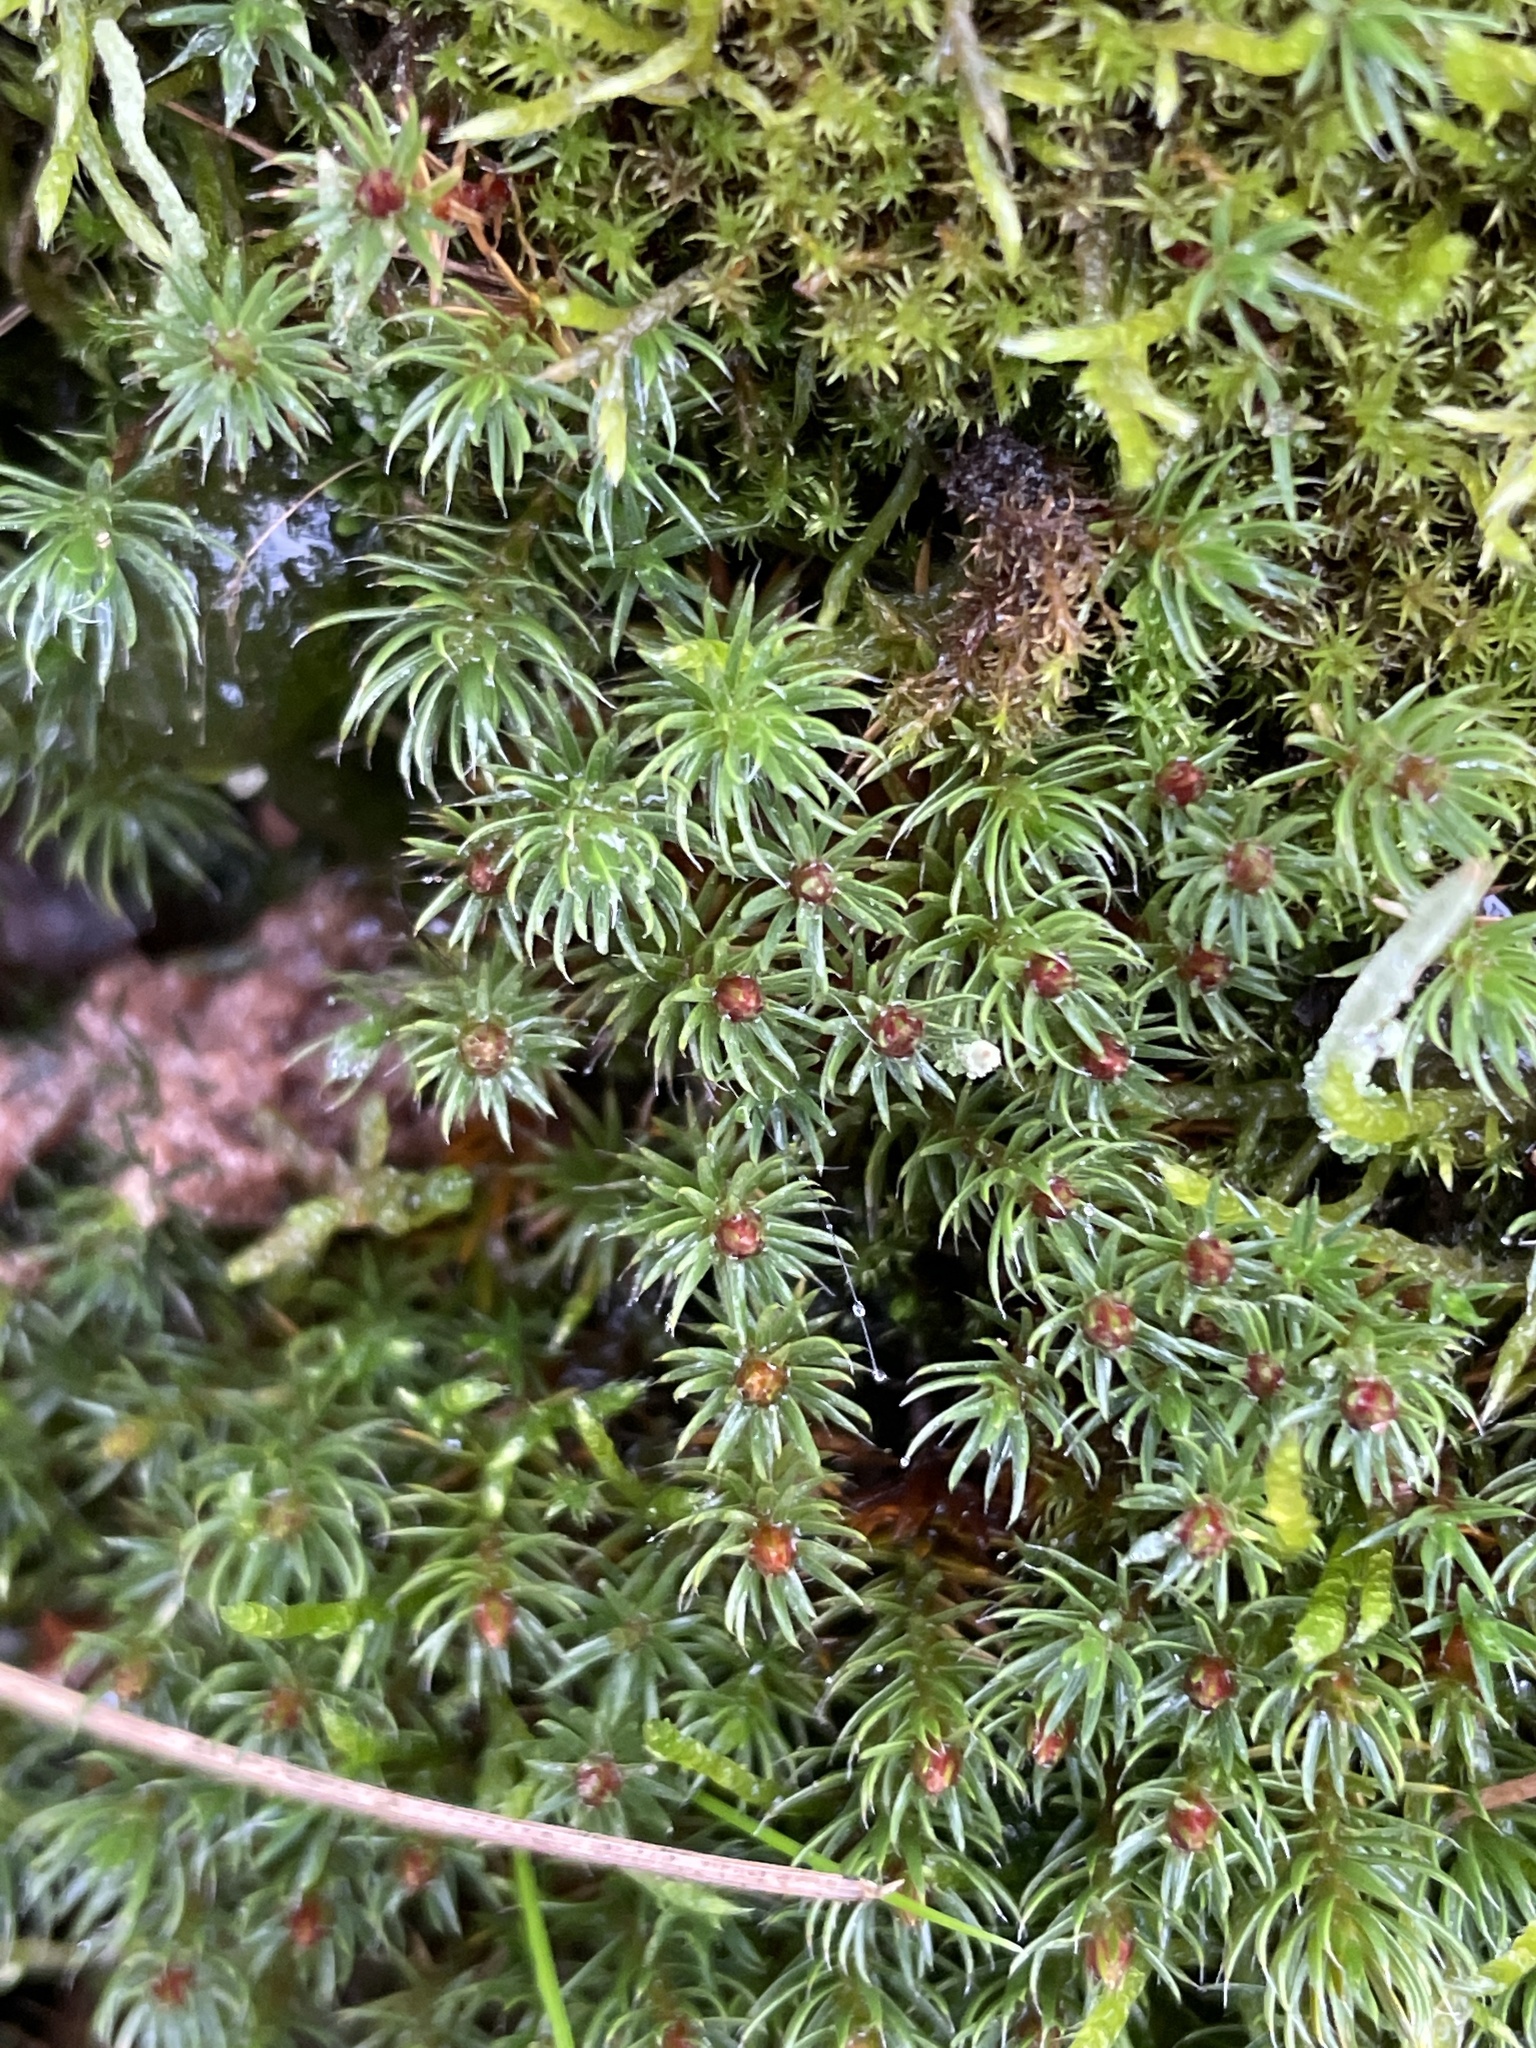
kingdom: Plantae
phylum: Bryophyta
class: Polytrichopsida
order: Polytrichales
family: Polytrichaceae
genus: Polytrichum
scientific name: Polytrichum piliferum
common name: Bristly haircap
